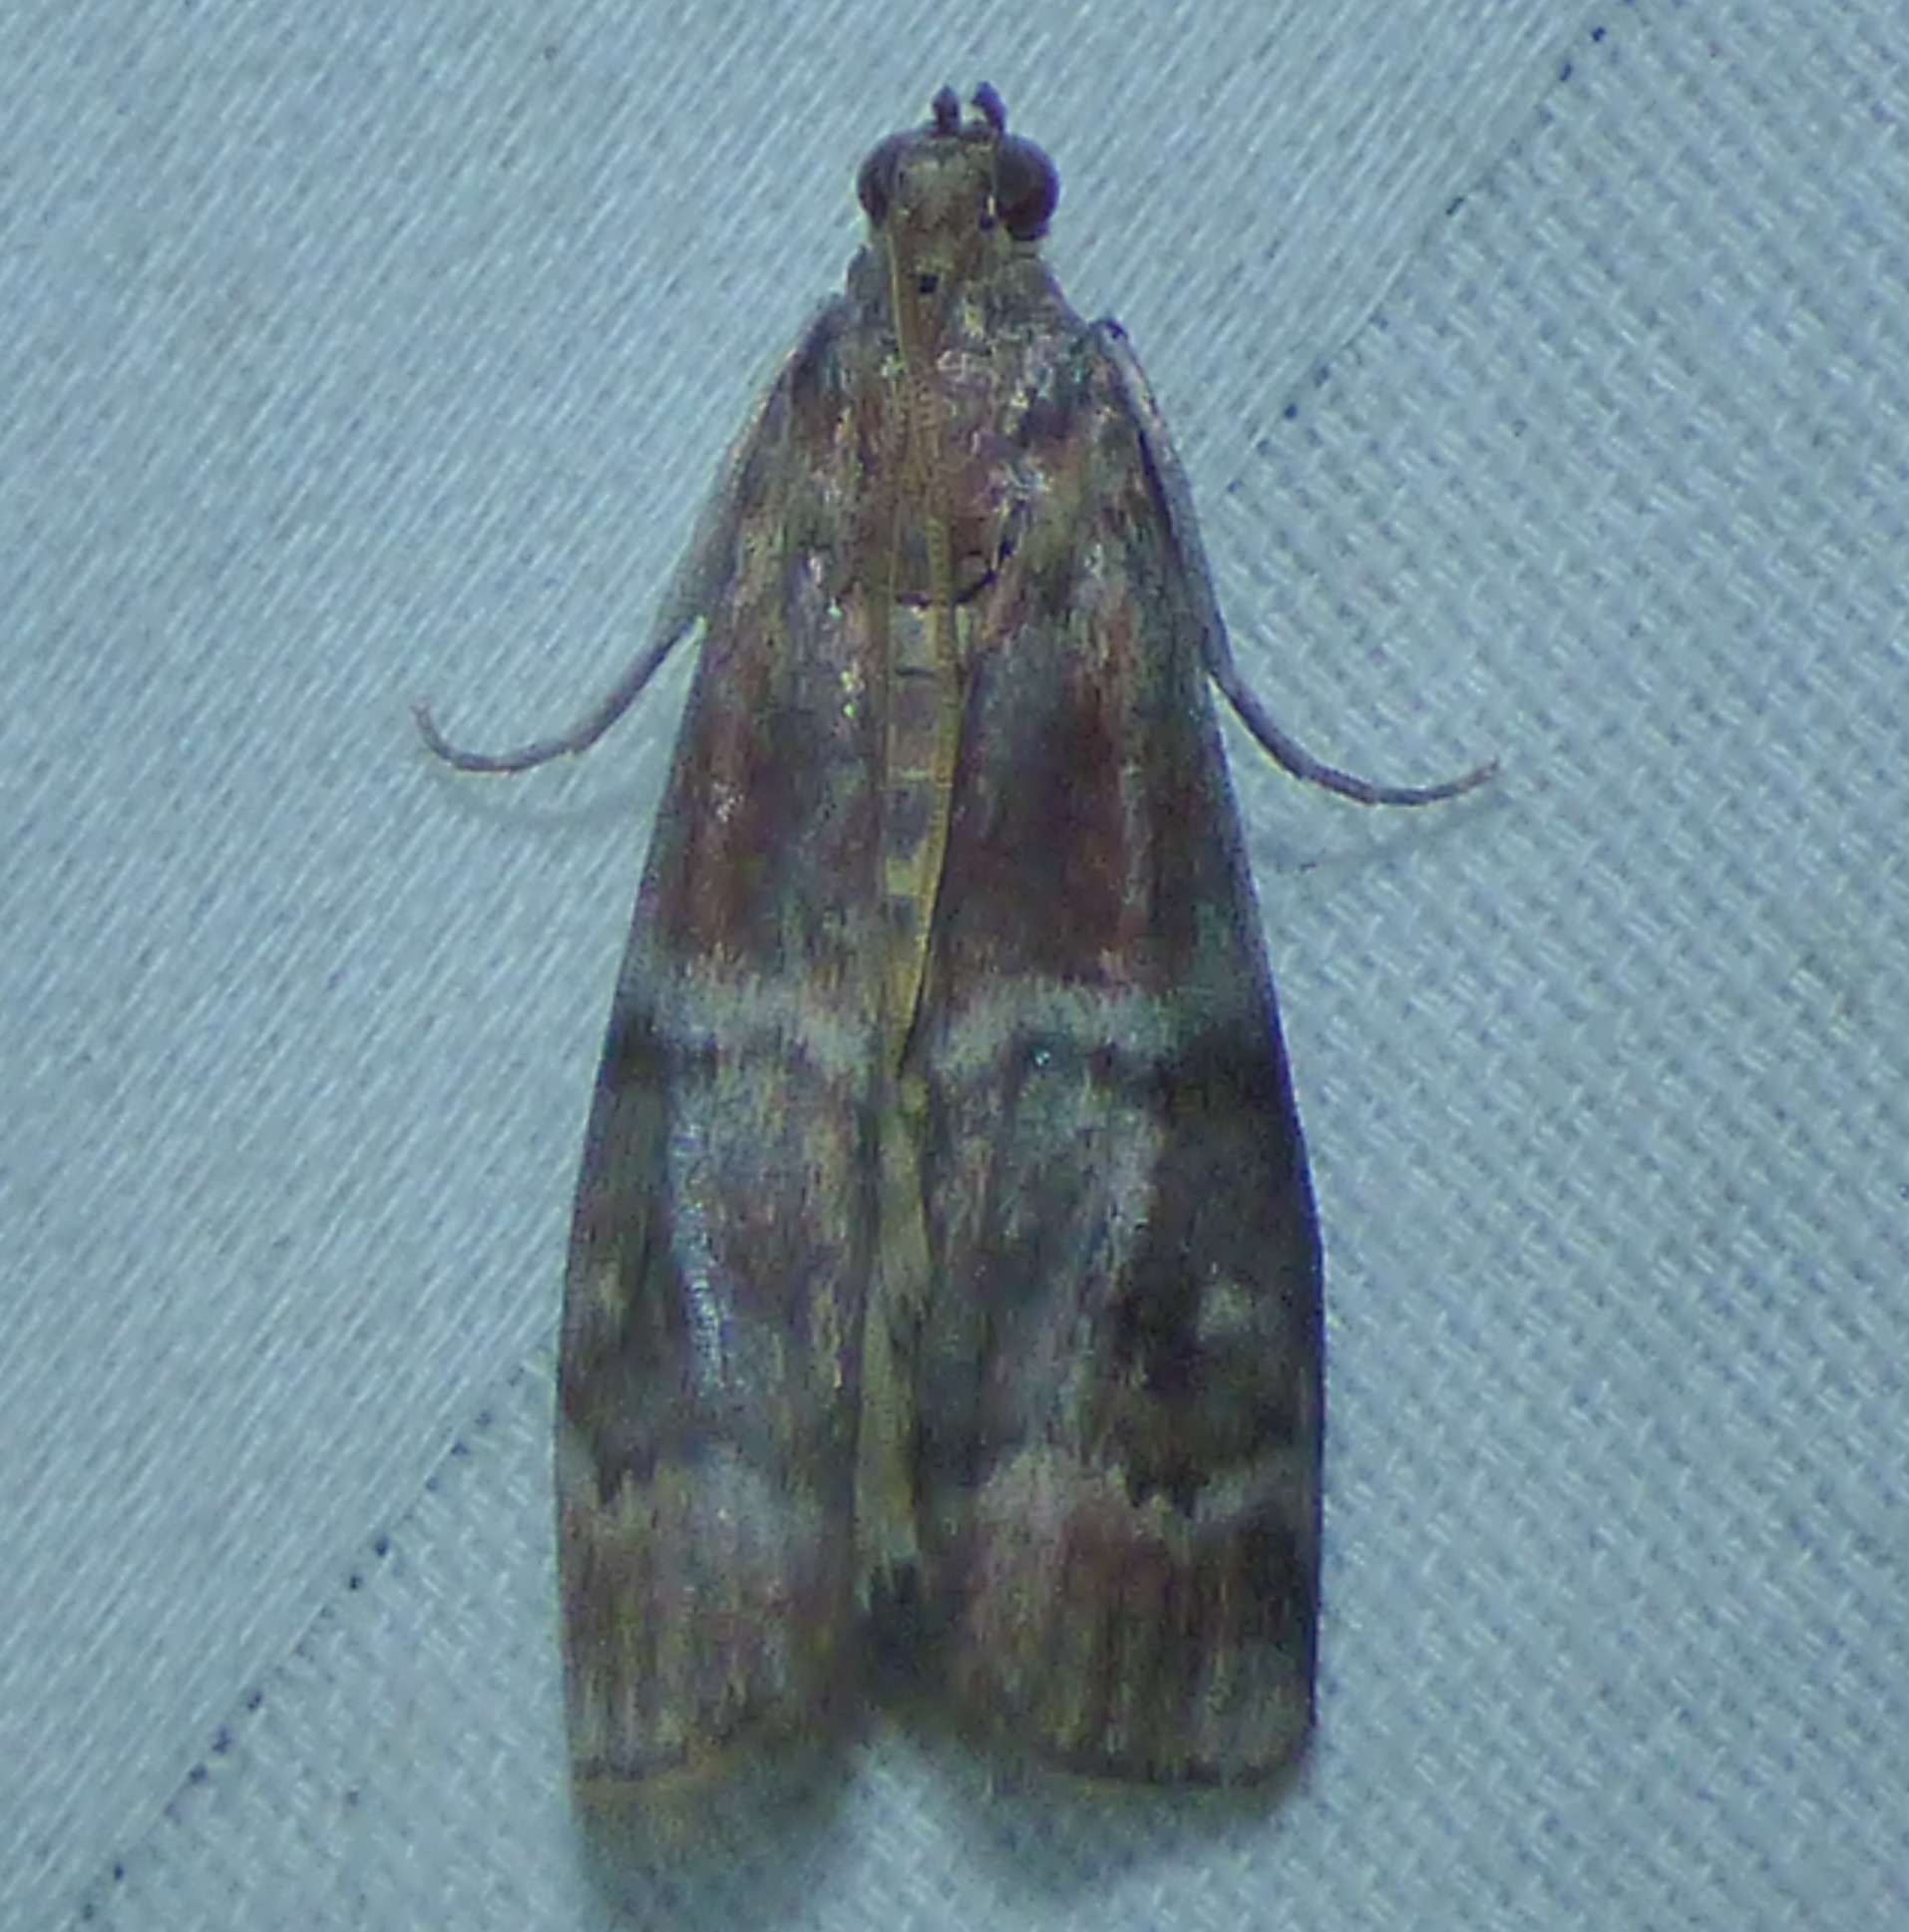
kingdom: Animalia
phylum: Arthropoda
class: Insecta
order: Lepidoptera
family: Pyralidae
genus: Euzophera
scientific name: Euzophera ostricolorella
